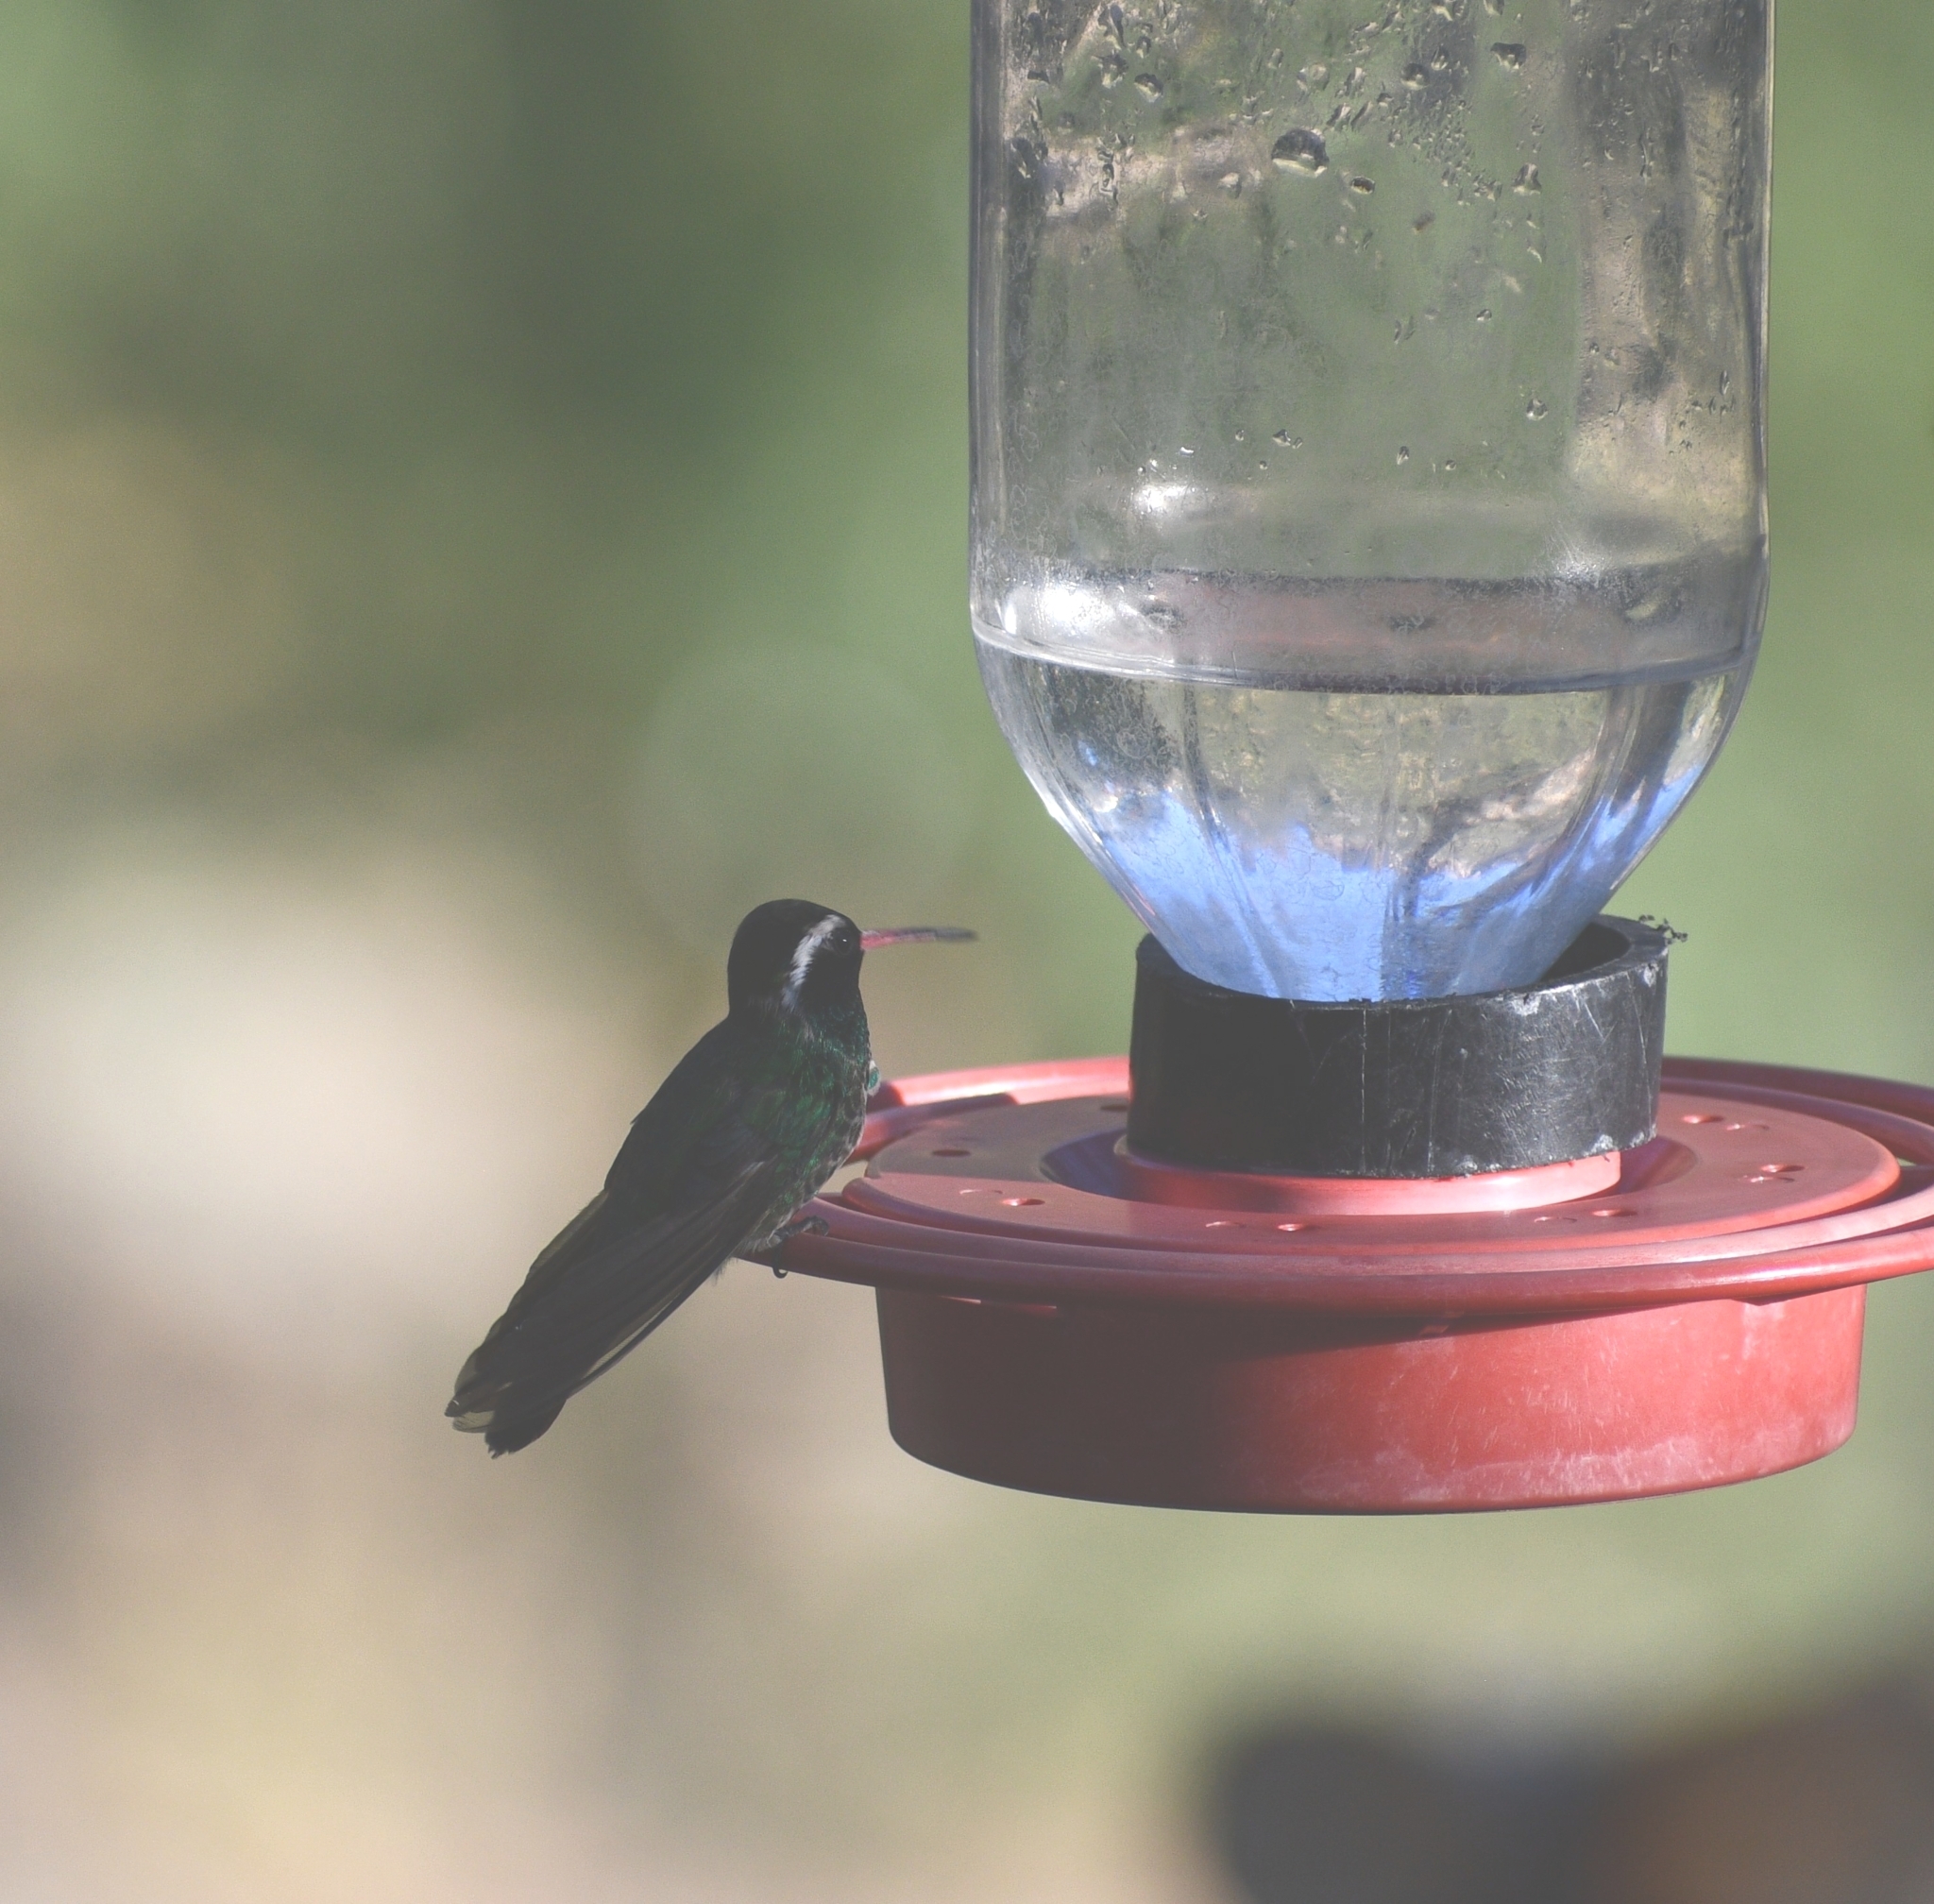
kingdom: Animalia
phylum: Chordata
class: Aves
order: Apodiformes
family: Trochilidae
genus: Basilinna
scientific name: Basilinna leucotis
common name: White-eared hummingbird
